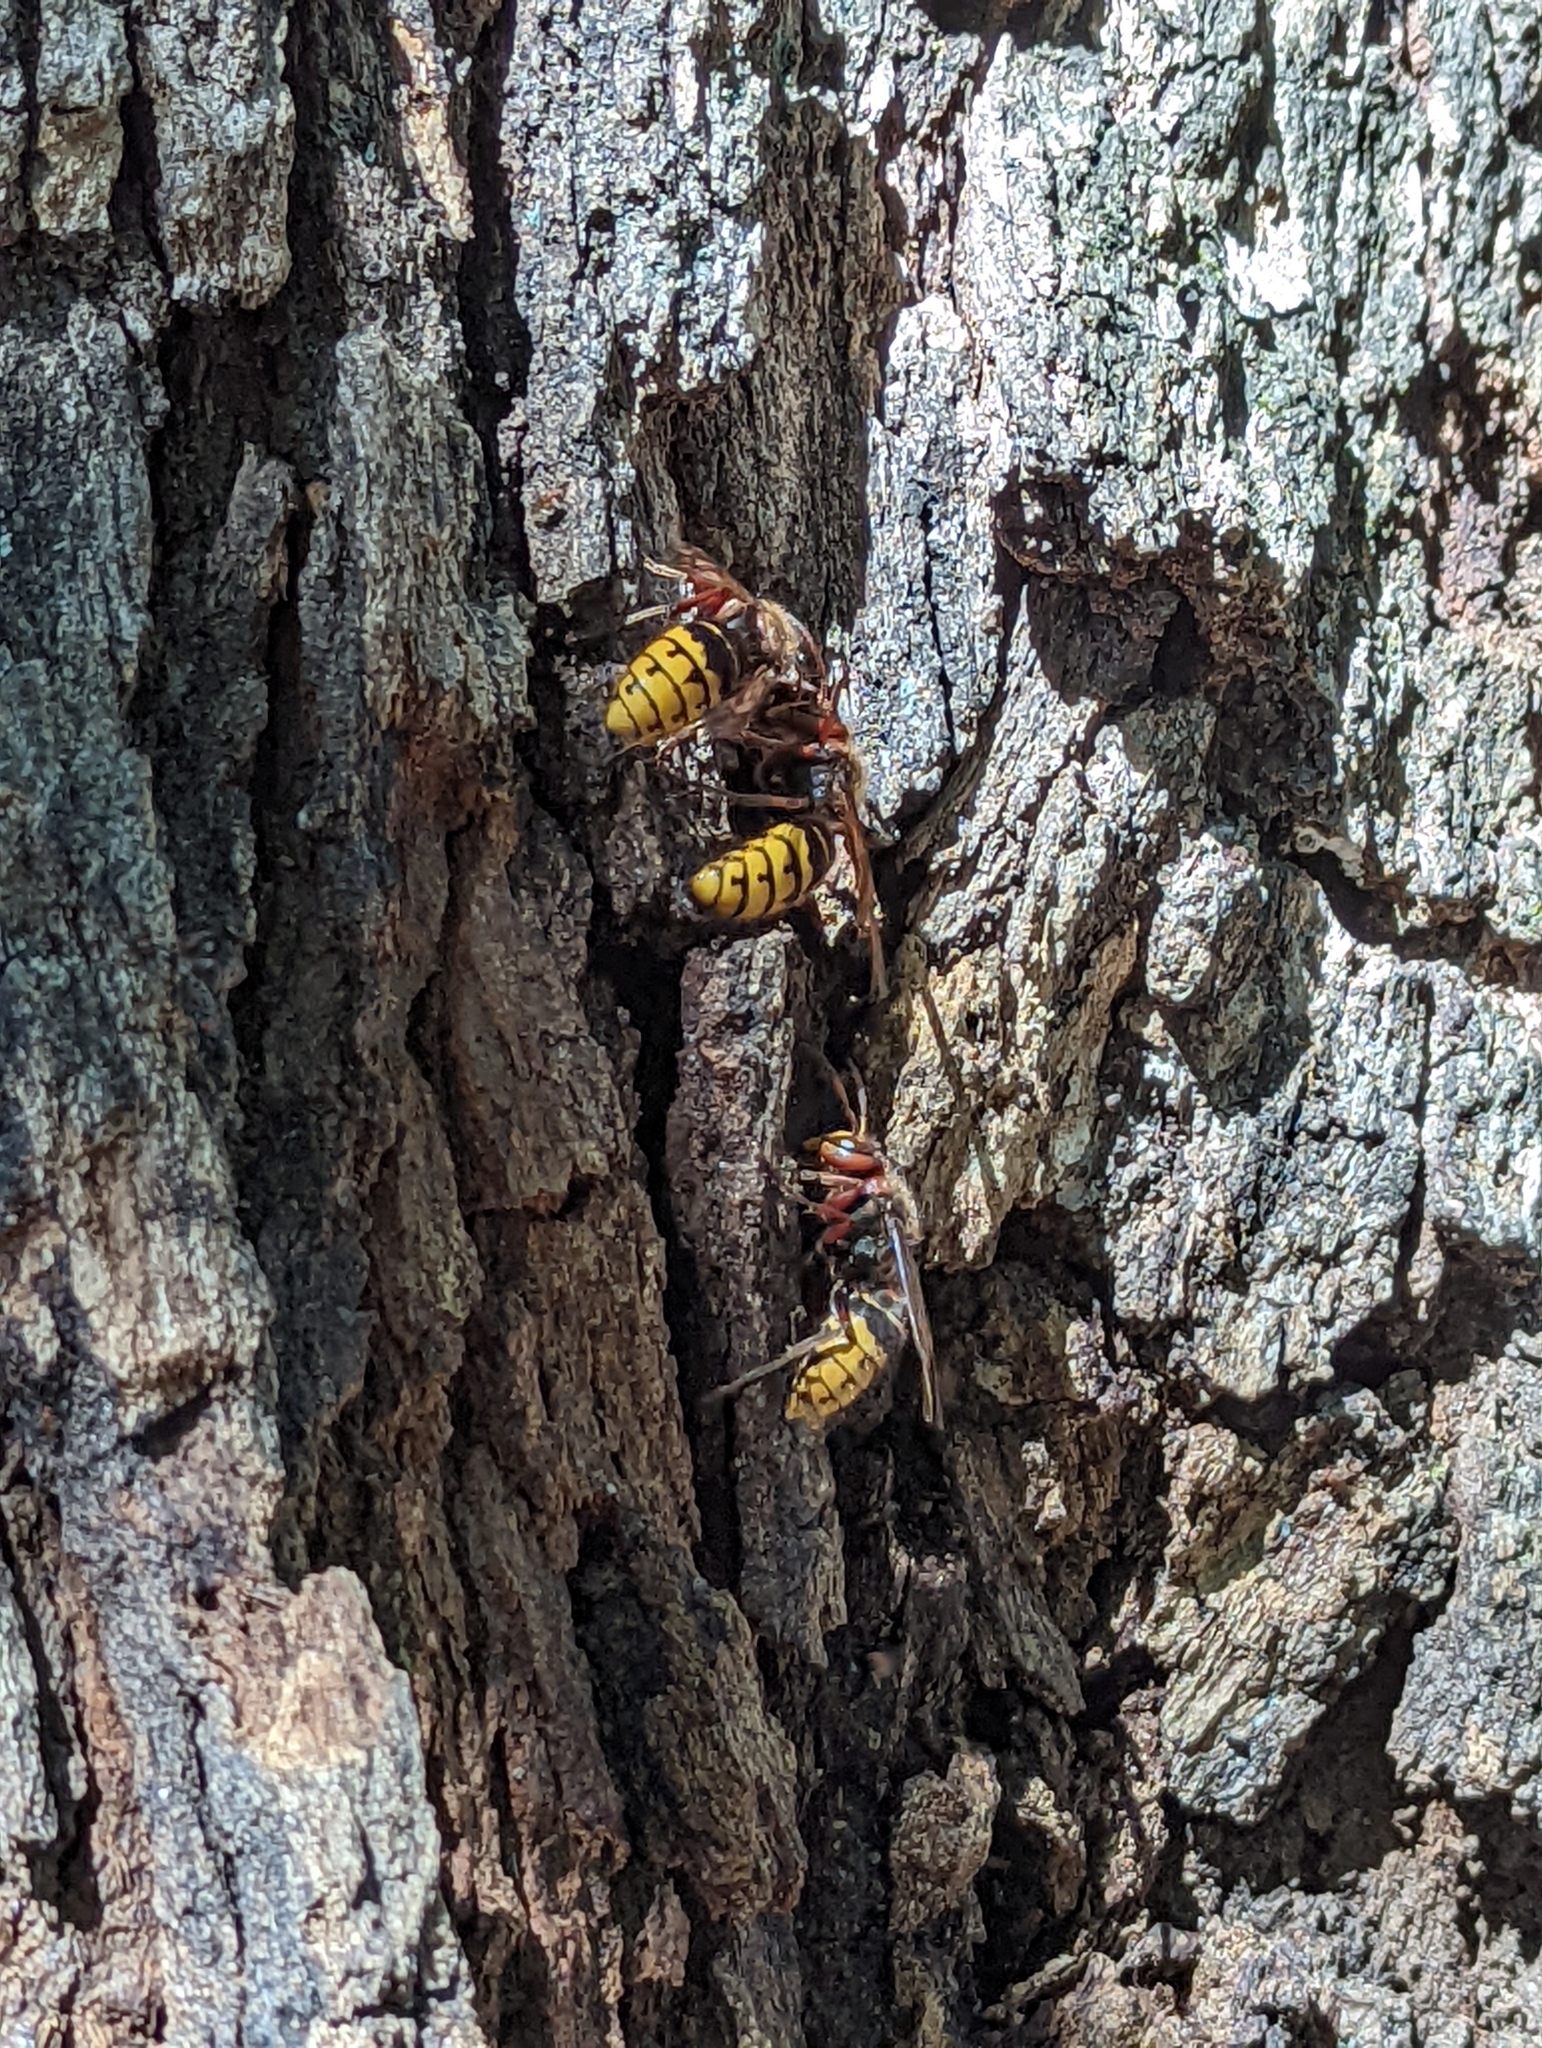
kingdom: Animalia
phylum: Arthropoda
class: Insecta
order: Hymenoptera
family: Vespidae
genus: Vespa
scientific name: Vespa crabro
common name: Hornet
